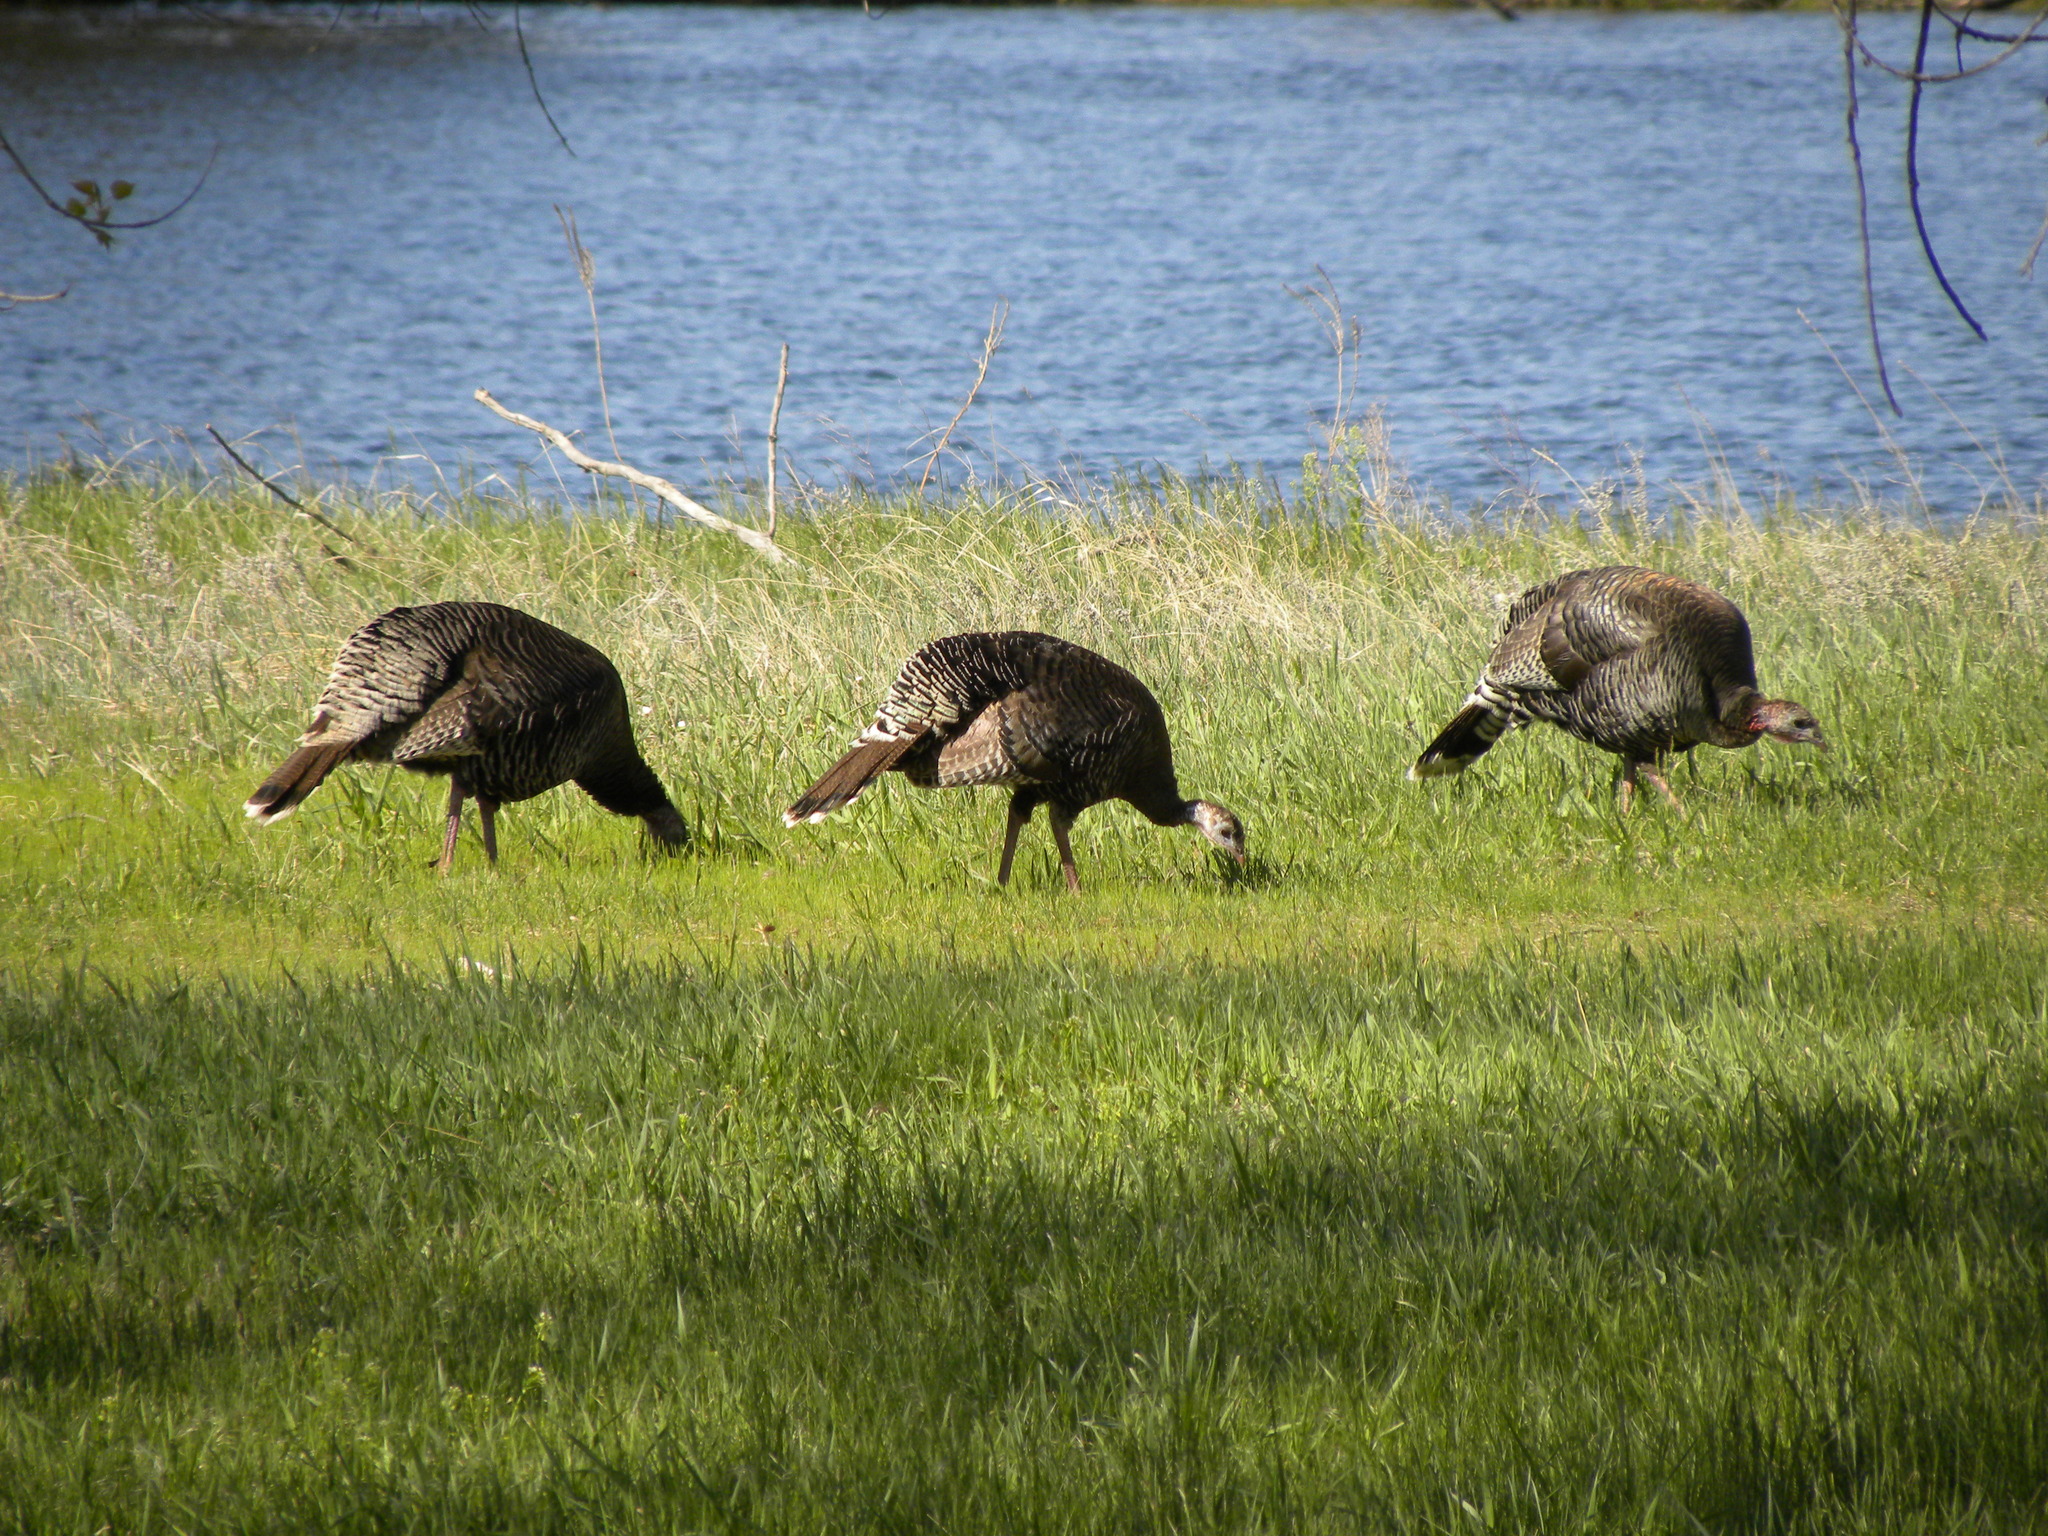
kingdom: Animalia
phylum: Chordata
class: Aves
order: Galliformes
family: Phasianidae
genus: Meleagris
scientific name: Meleagris gallopavo
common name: Wild turkey
